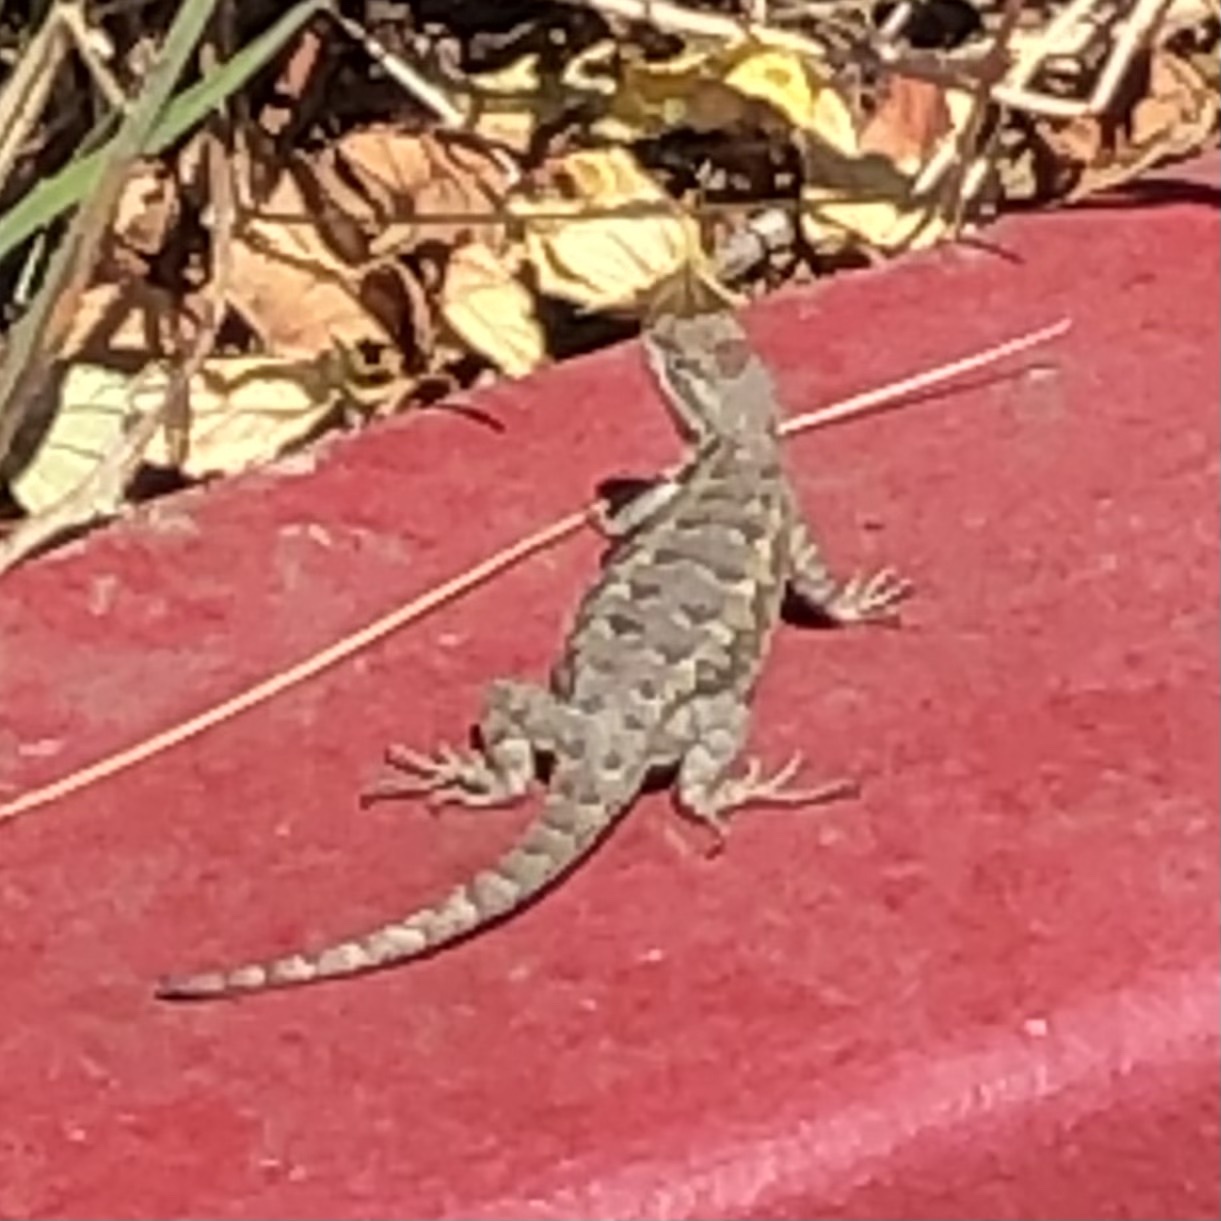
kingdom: Animalia
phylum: Chordata
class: Squamata
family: Phrynosomatidae
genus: Sceloporus
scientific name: Sceloporus occidentalis
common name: Western fence lizard
